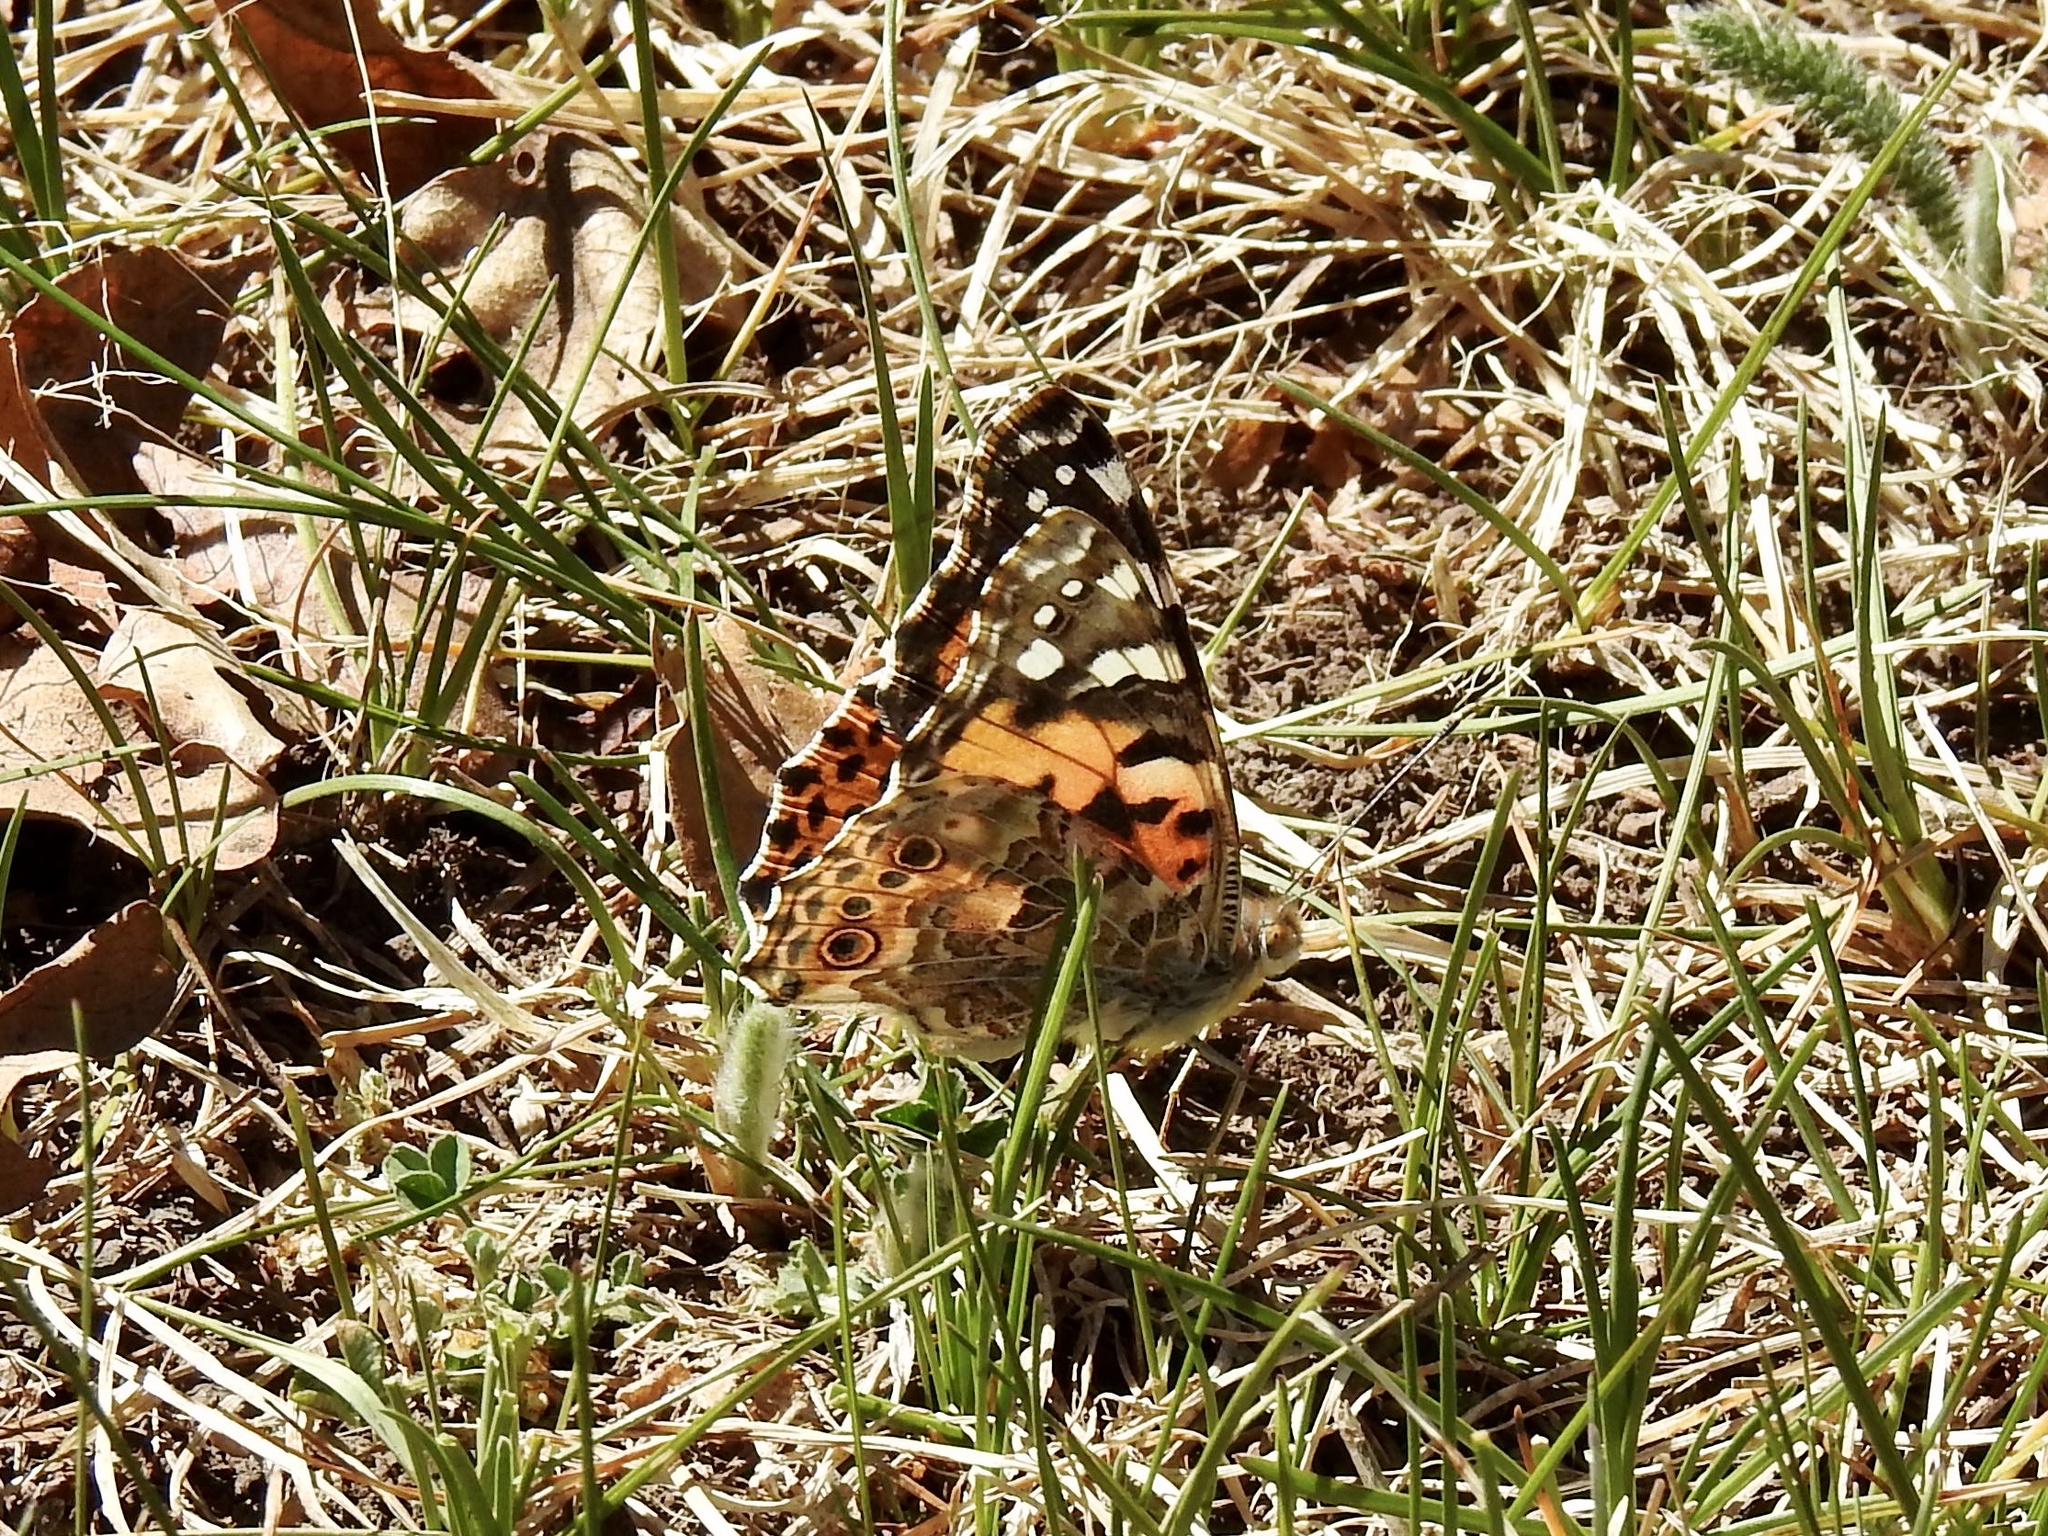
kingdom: Animalia
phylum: Arthropoda
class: Insecta
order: Lepidoptera
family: Nymphalidae
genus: Vanessa
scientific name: Vanessa cardui
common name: Painted lady
